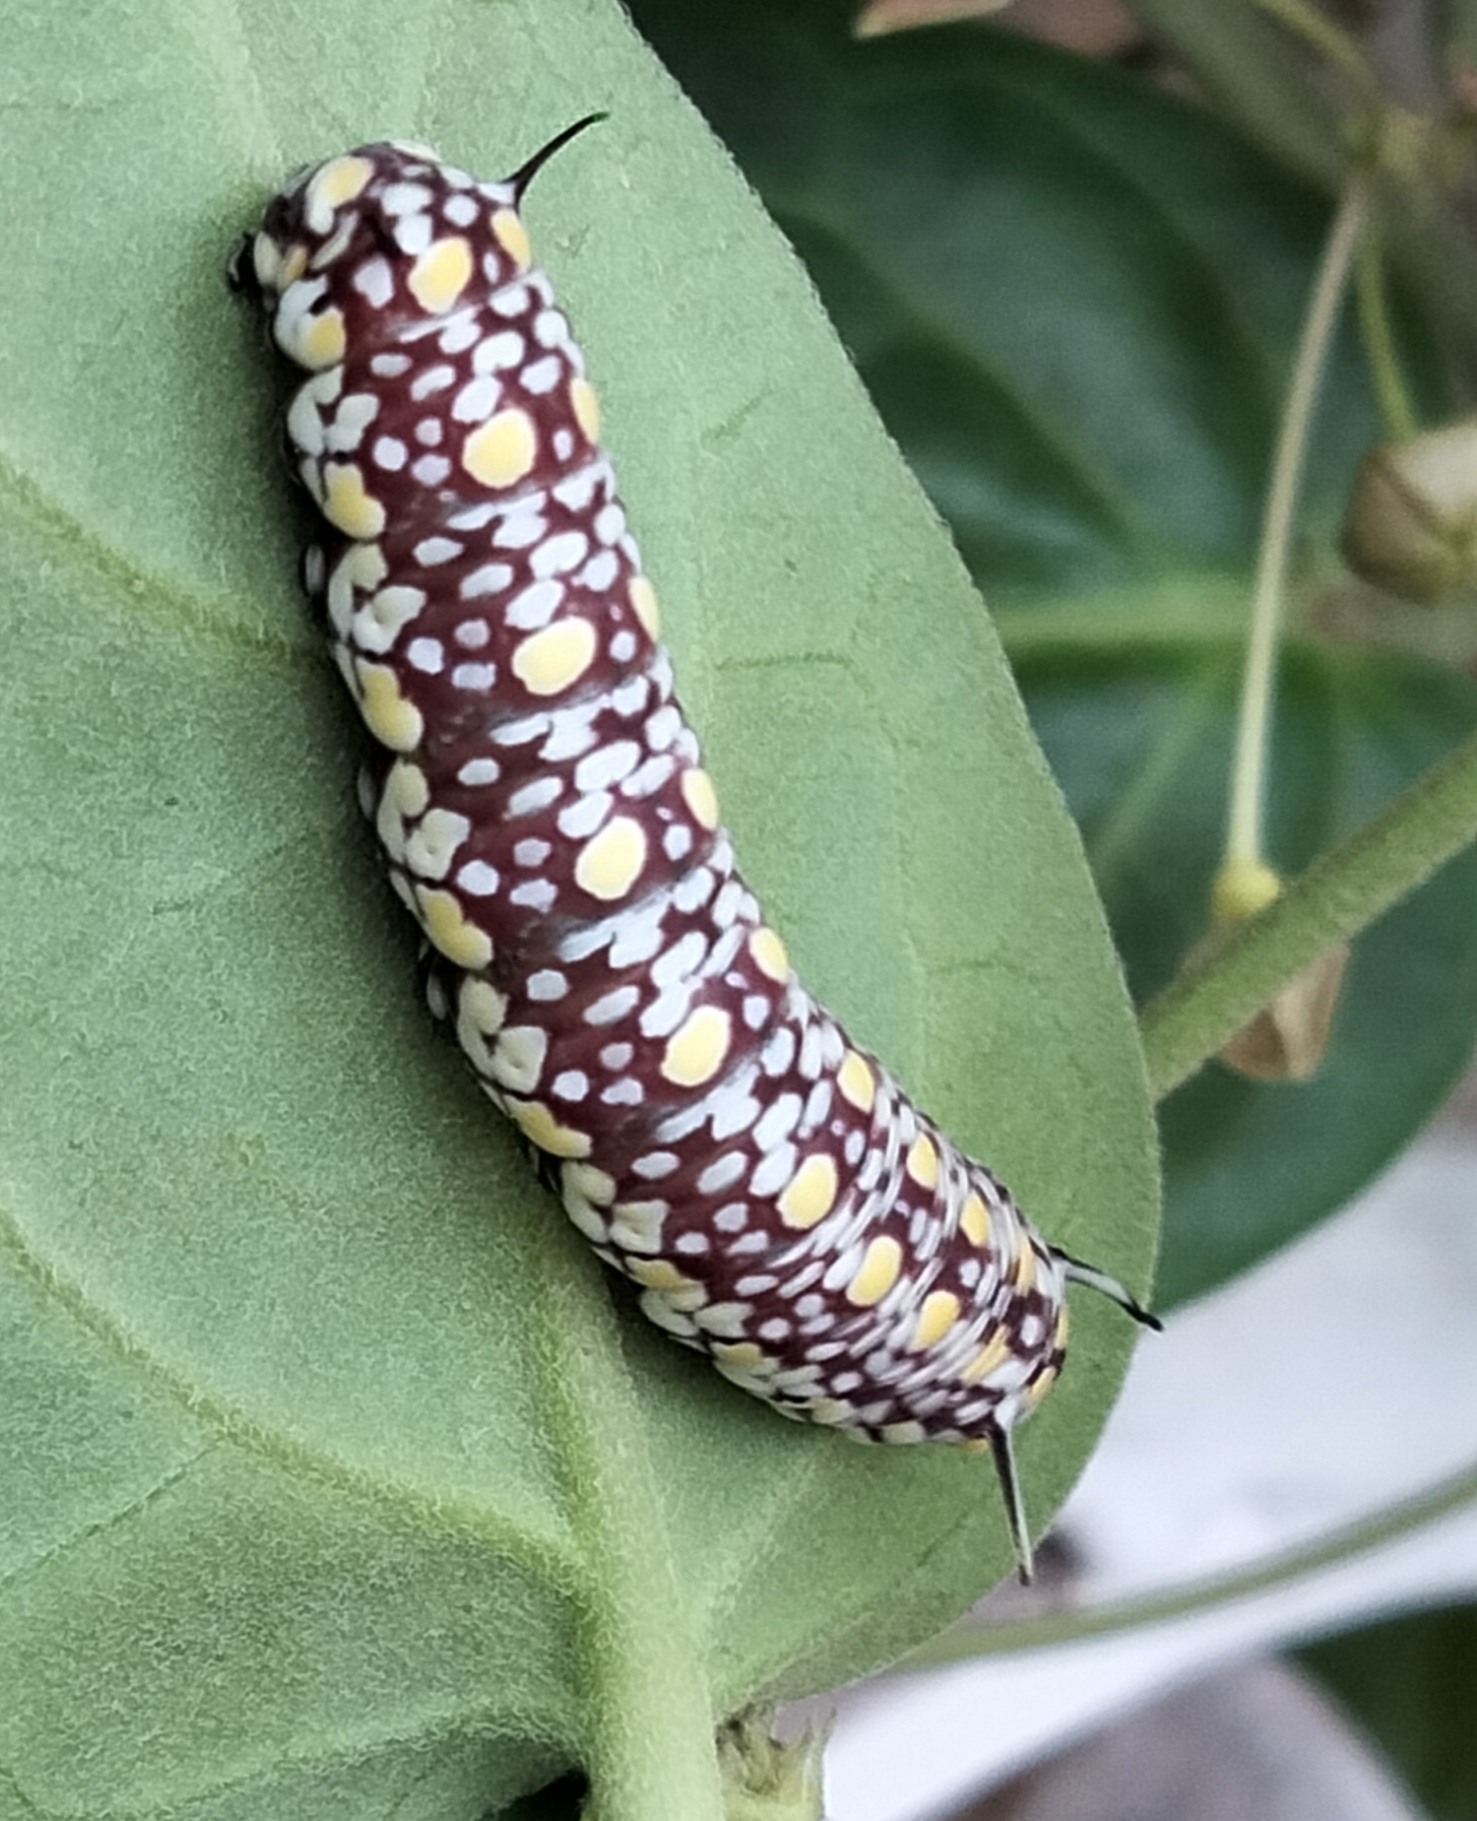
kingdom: Animalia
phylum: Arthropoda
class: Insecta
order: Lepidoptera
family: Nymphalidae
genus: Parantica
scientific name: Parantica aglea
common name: Glassy tiger
